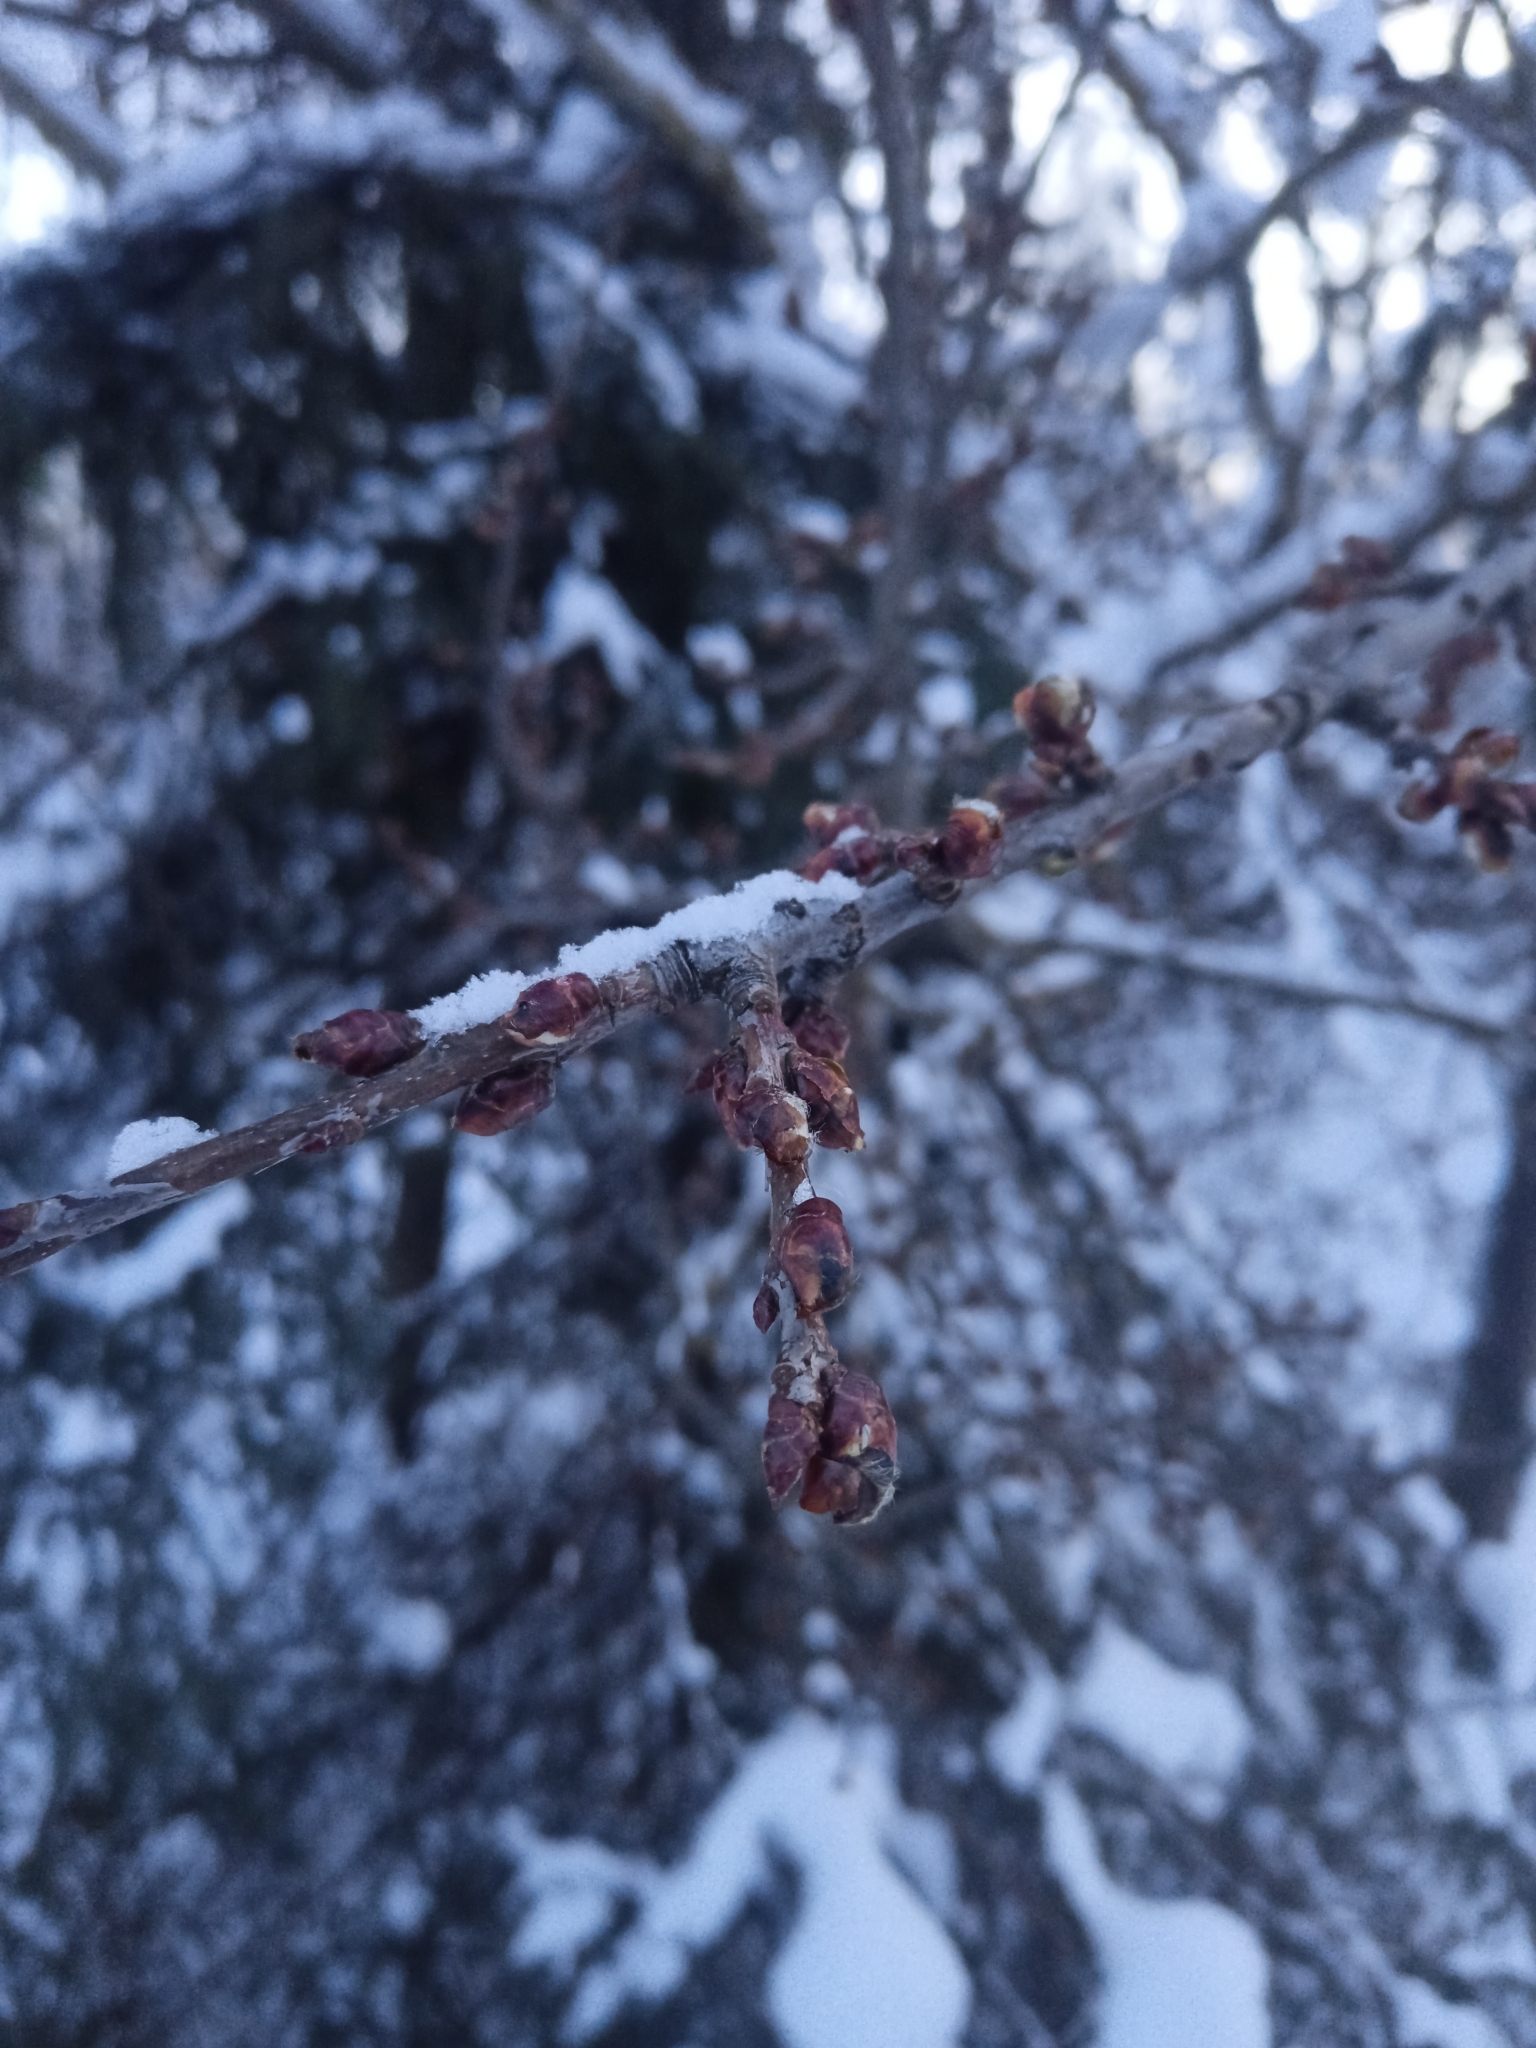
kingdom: Plantae
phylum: Tracheophyta
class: Magnoliopsida
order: Fagales
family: Fagaceae
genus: Quercus
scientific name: Quercus robur
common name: Pedunculate oak
